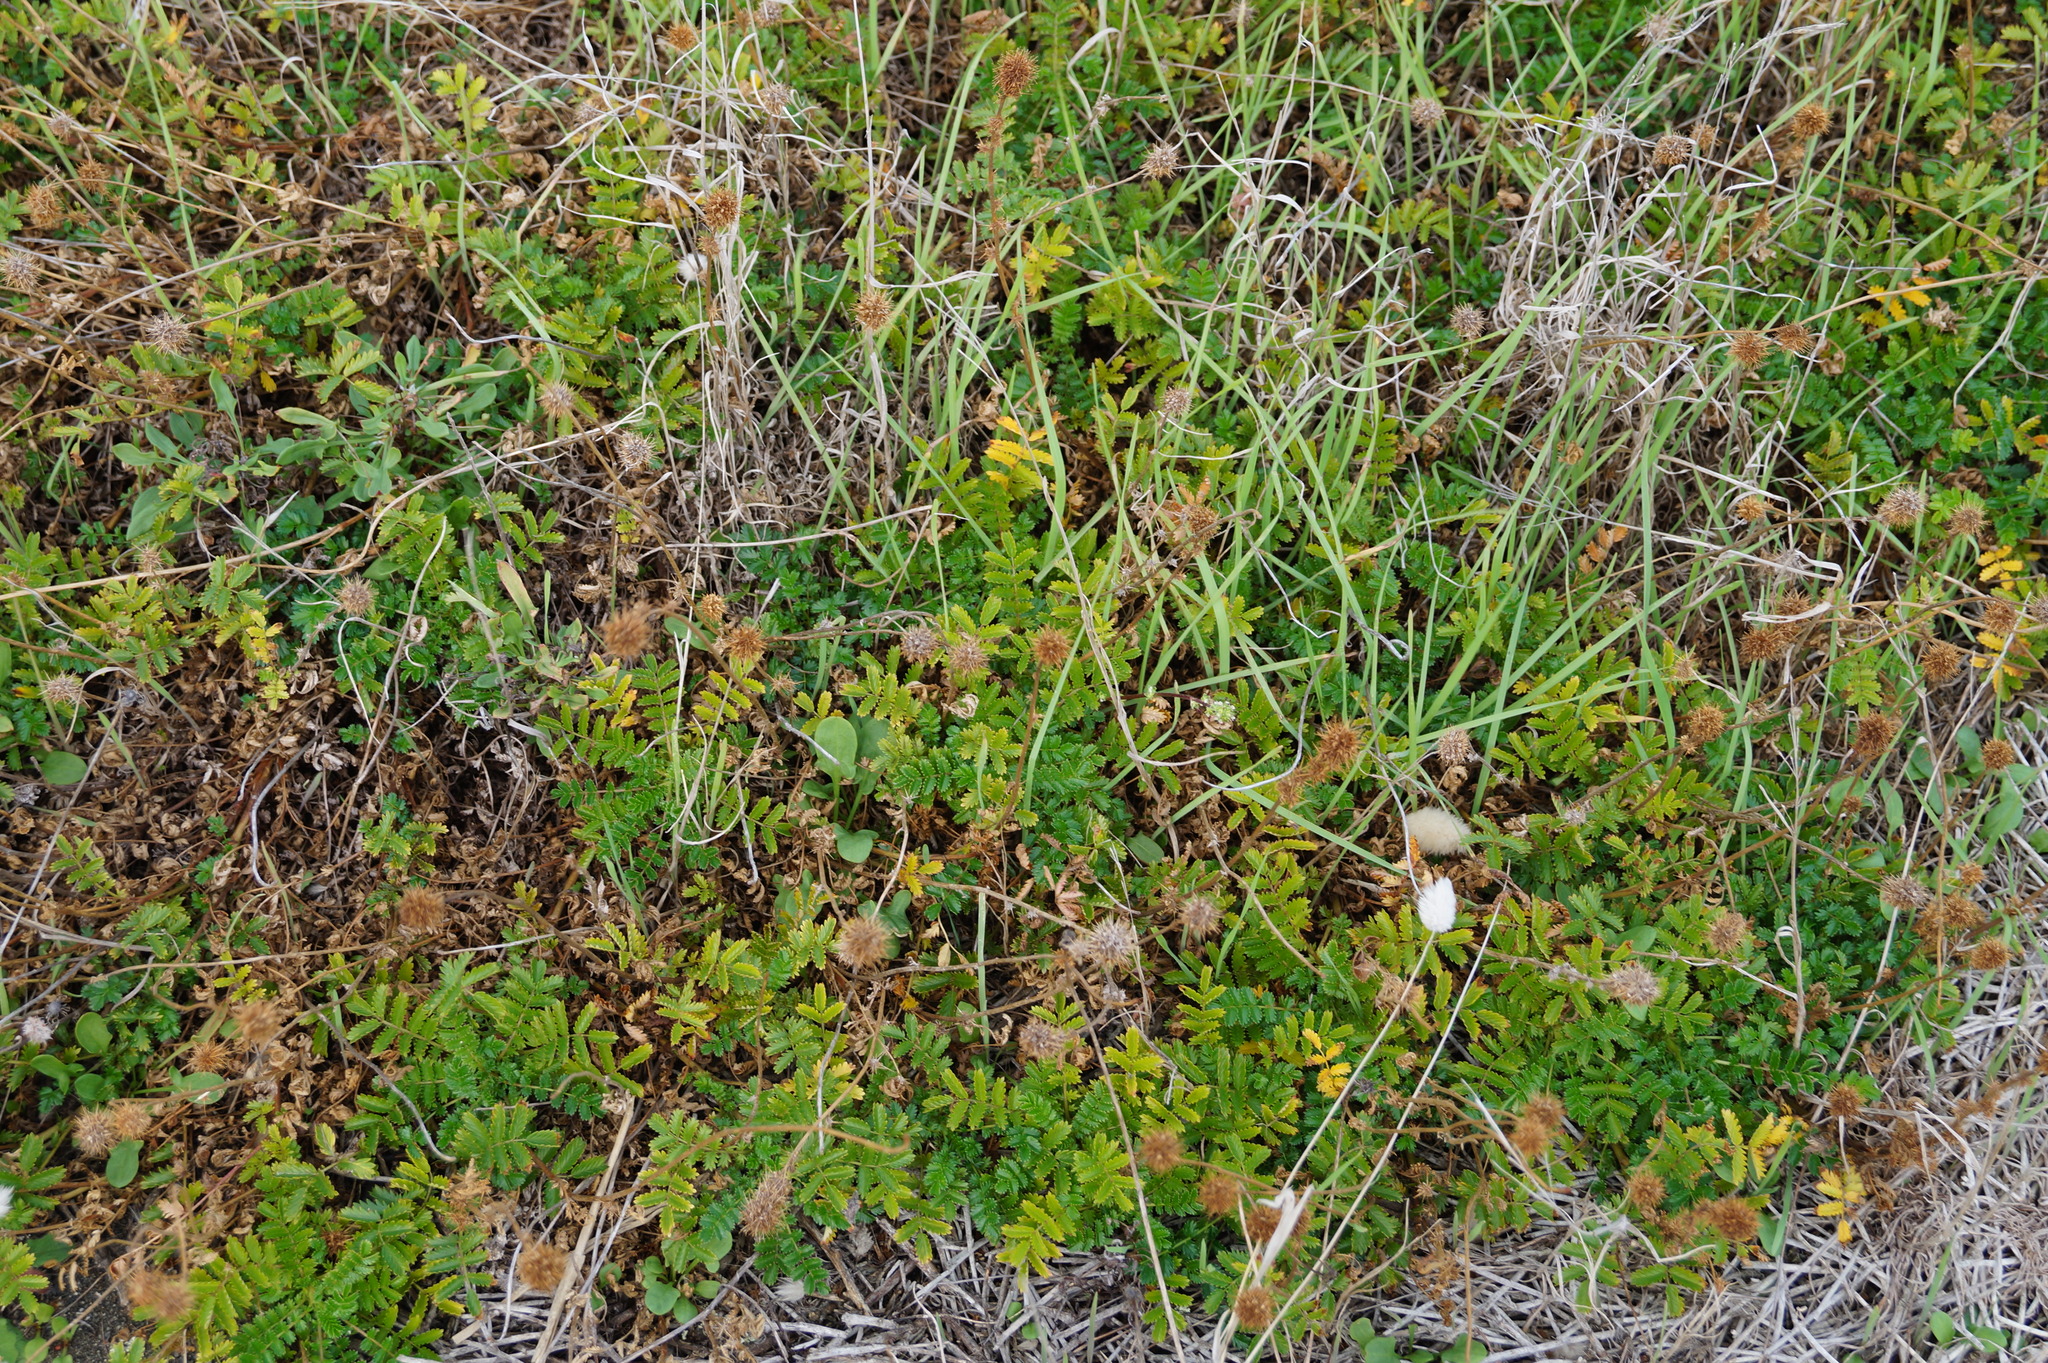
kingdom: Plantae
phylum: Tracheophyta
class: Magnoliopsida
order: Rosales
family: Rosaceae
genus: Acaena
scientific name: Acaena novae-zelandiae
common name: Pirri-pirri-bur
